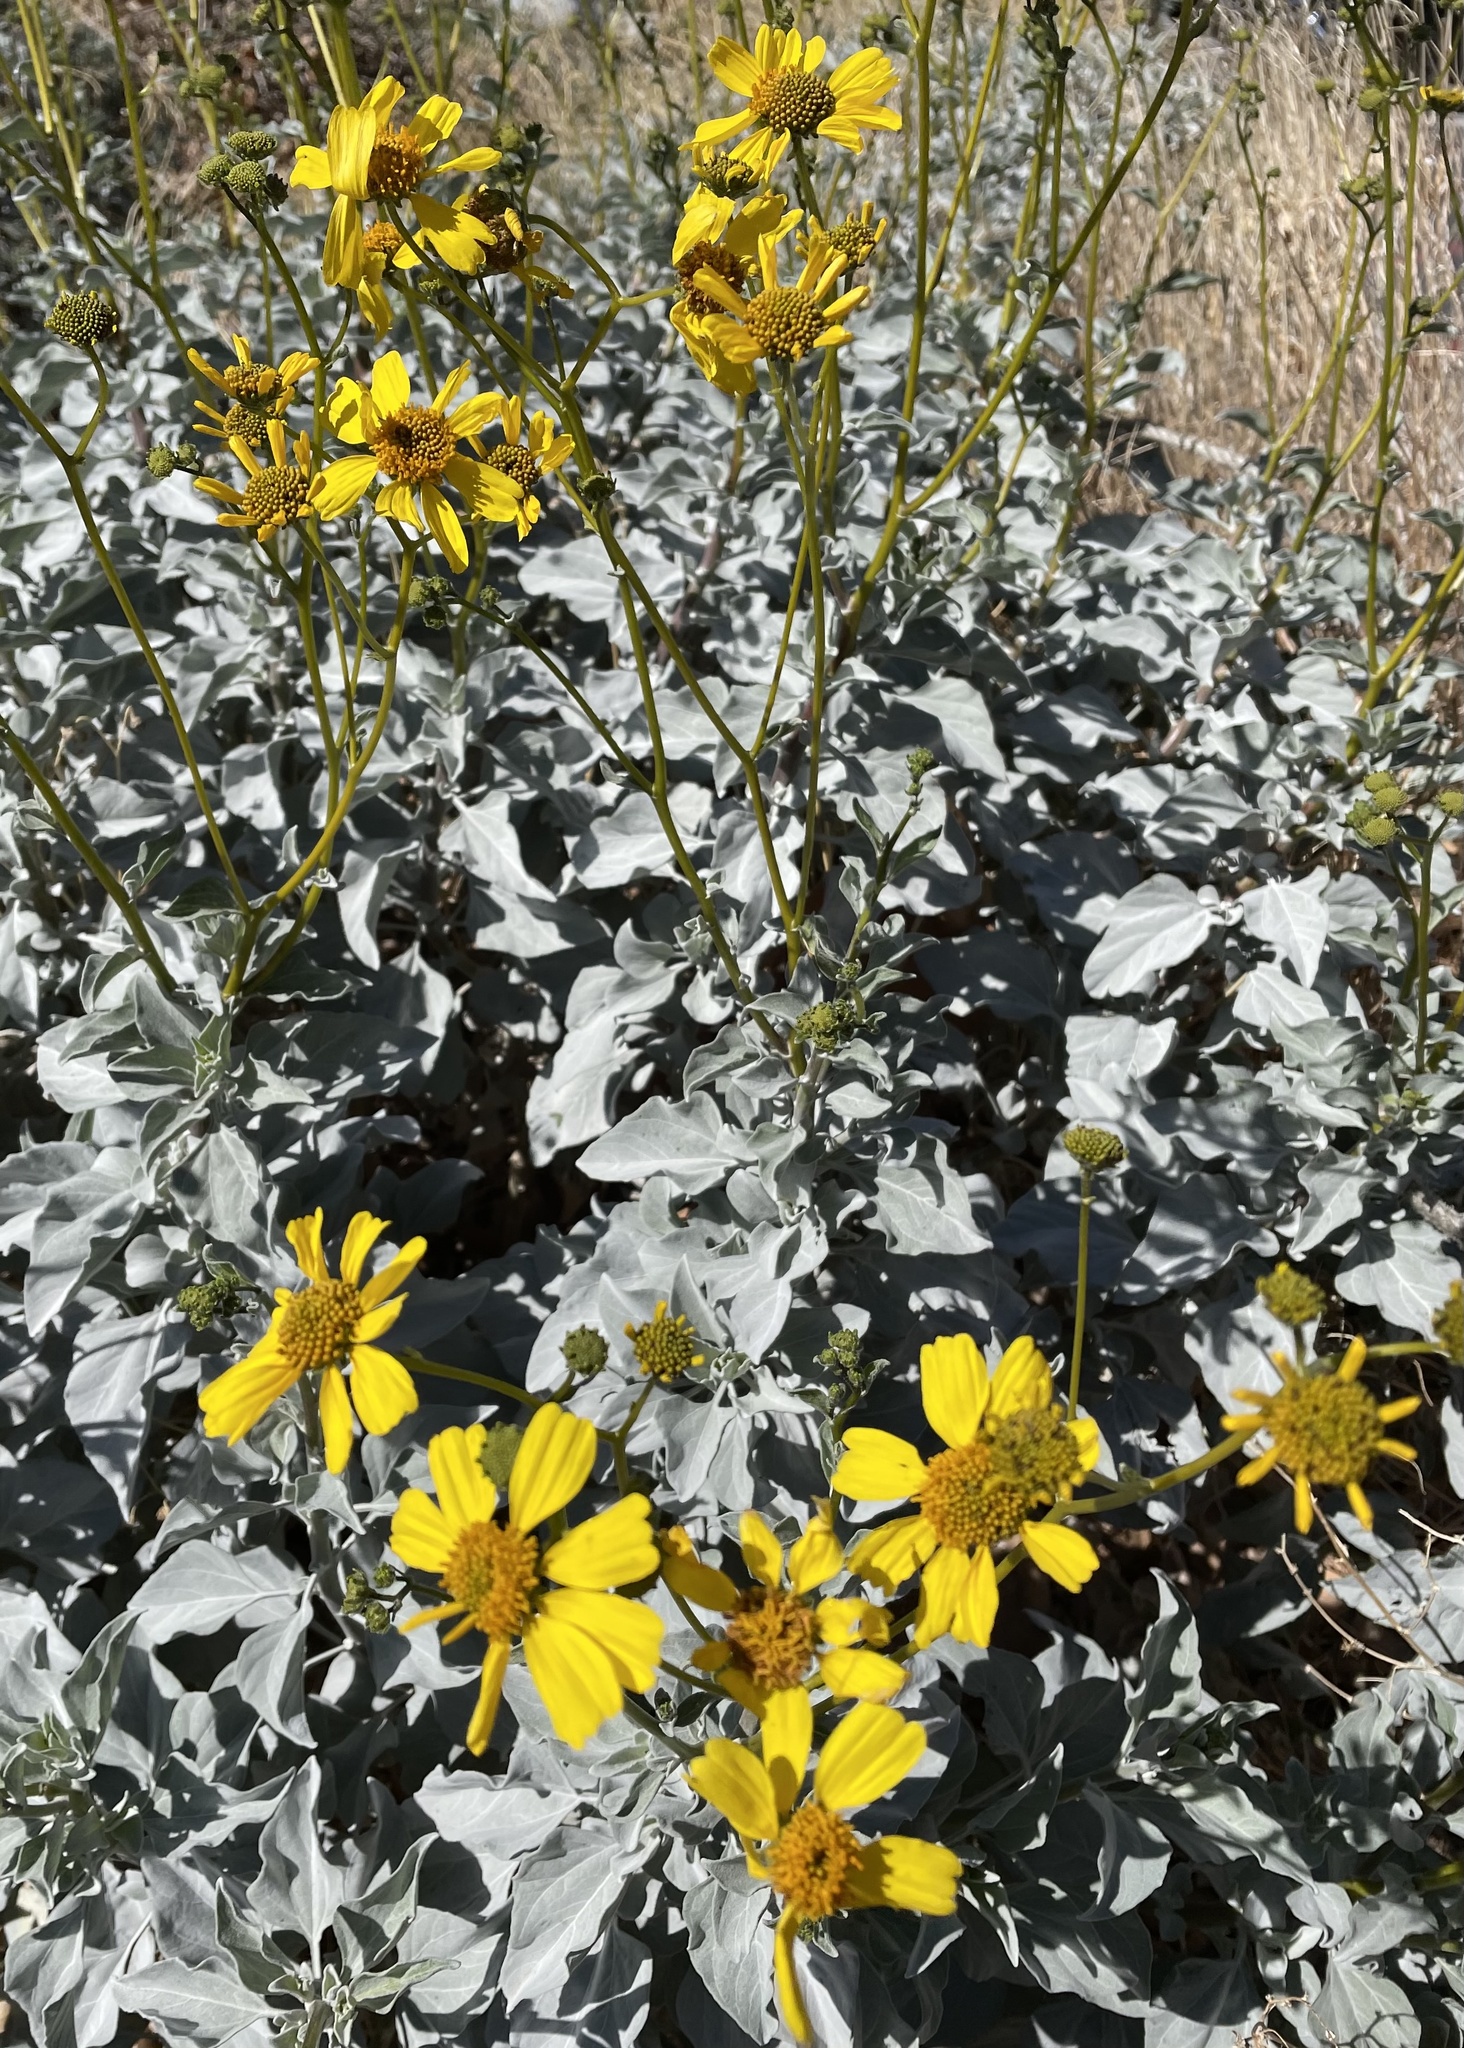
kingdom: Plantae
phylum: Tracheophyta
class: Magnoliopsida
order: Asterales
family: Asteraceae
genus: Encelia
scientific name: Encelia farinosa
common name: Brittlebush
